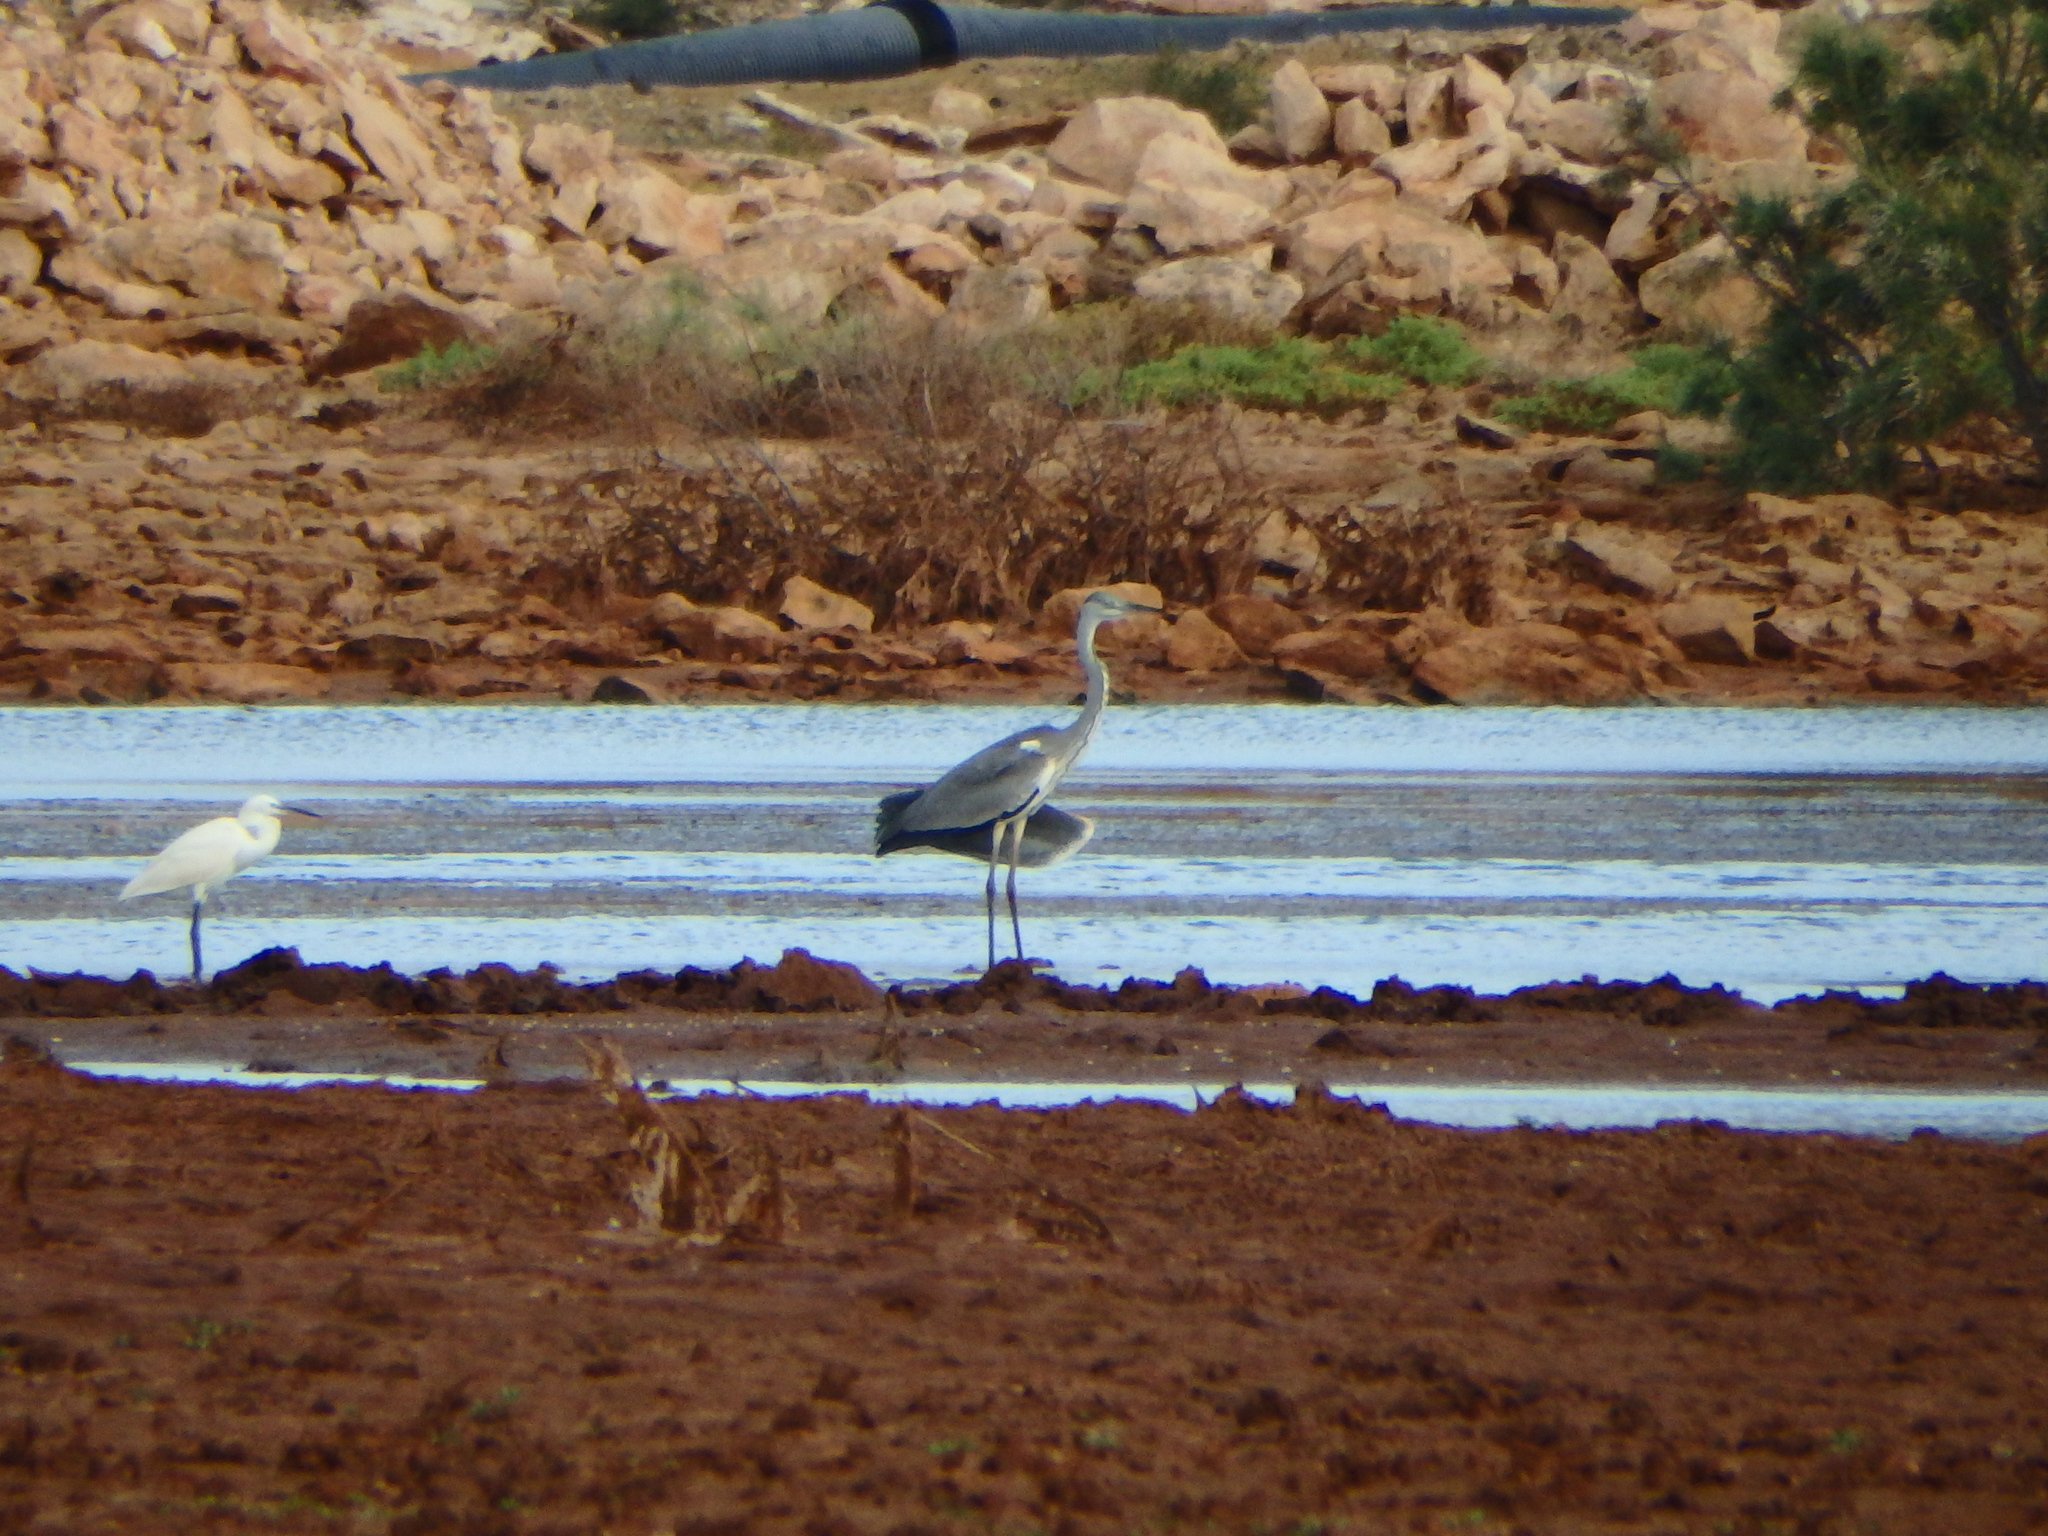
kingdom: Animalia
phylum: Chordata
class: Aves
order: Pelecaniformes
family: Ardeidae
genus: Ardea
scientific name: Ardea cinerea
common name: Grey heron
